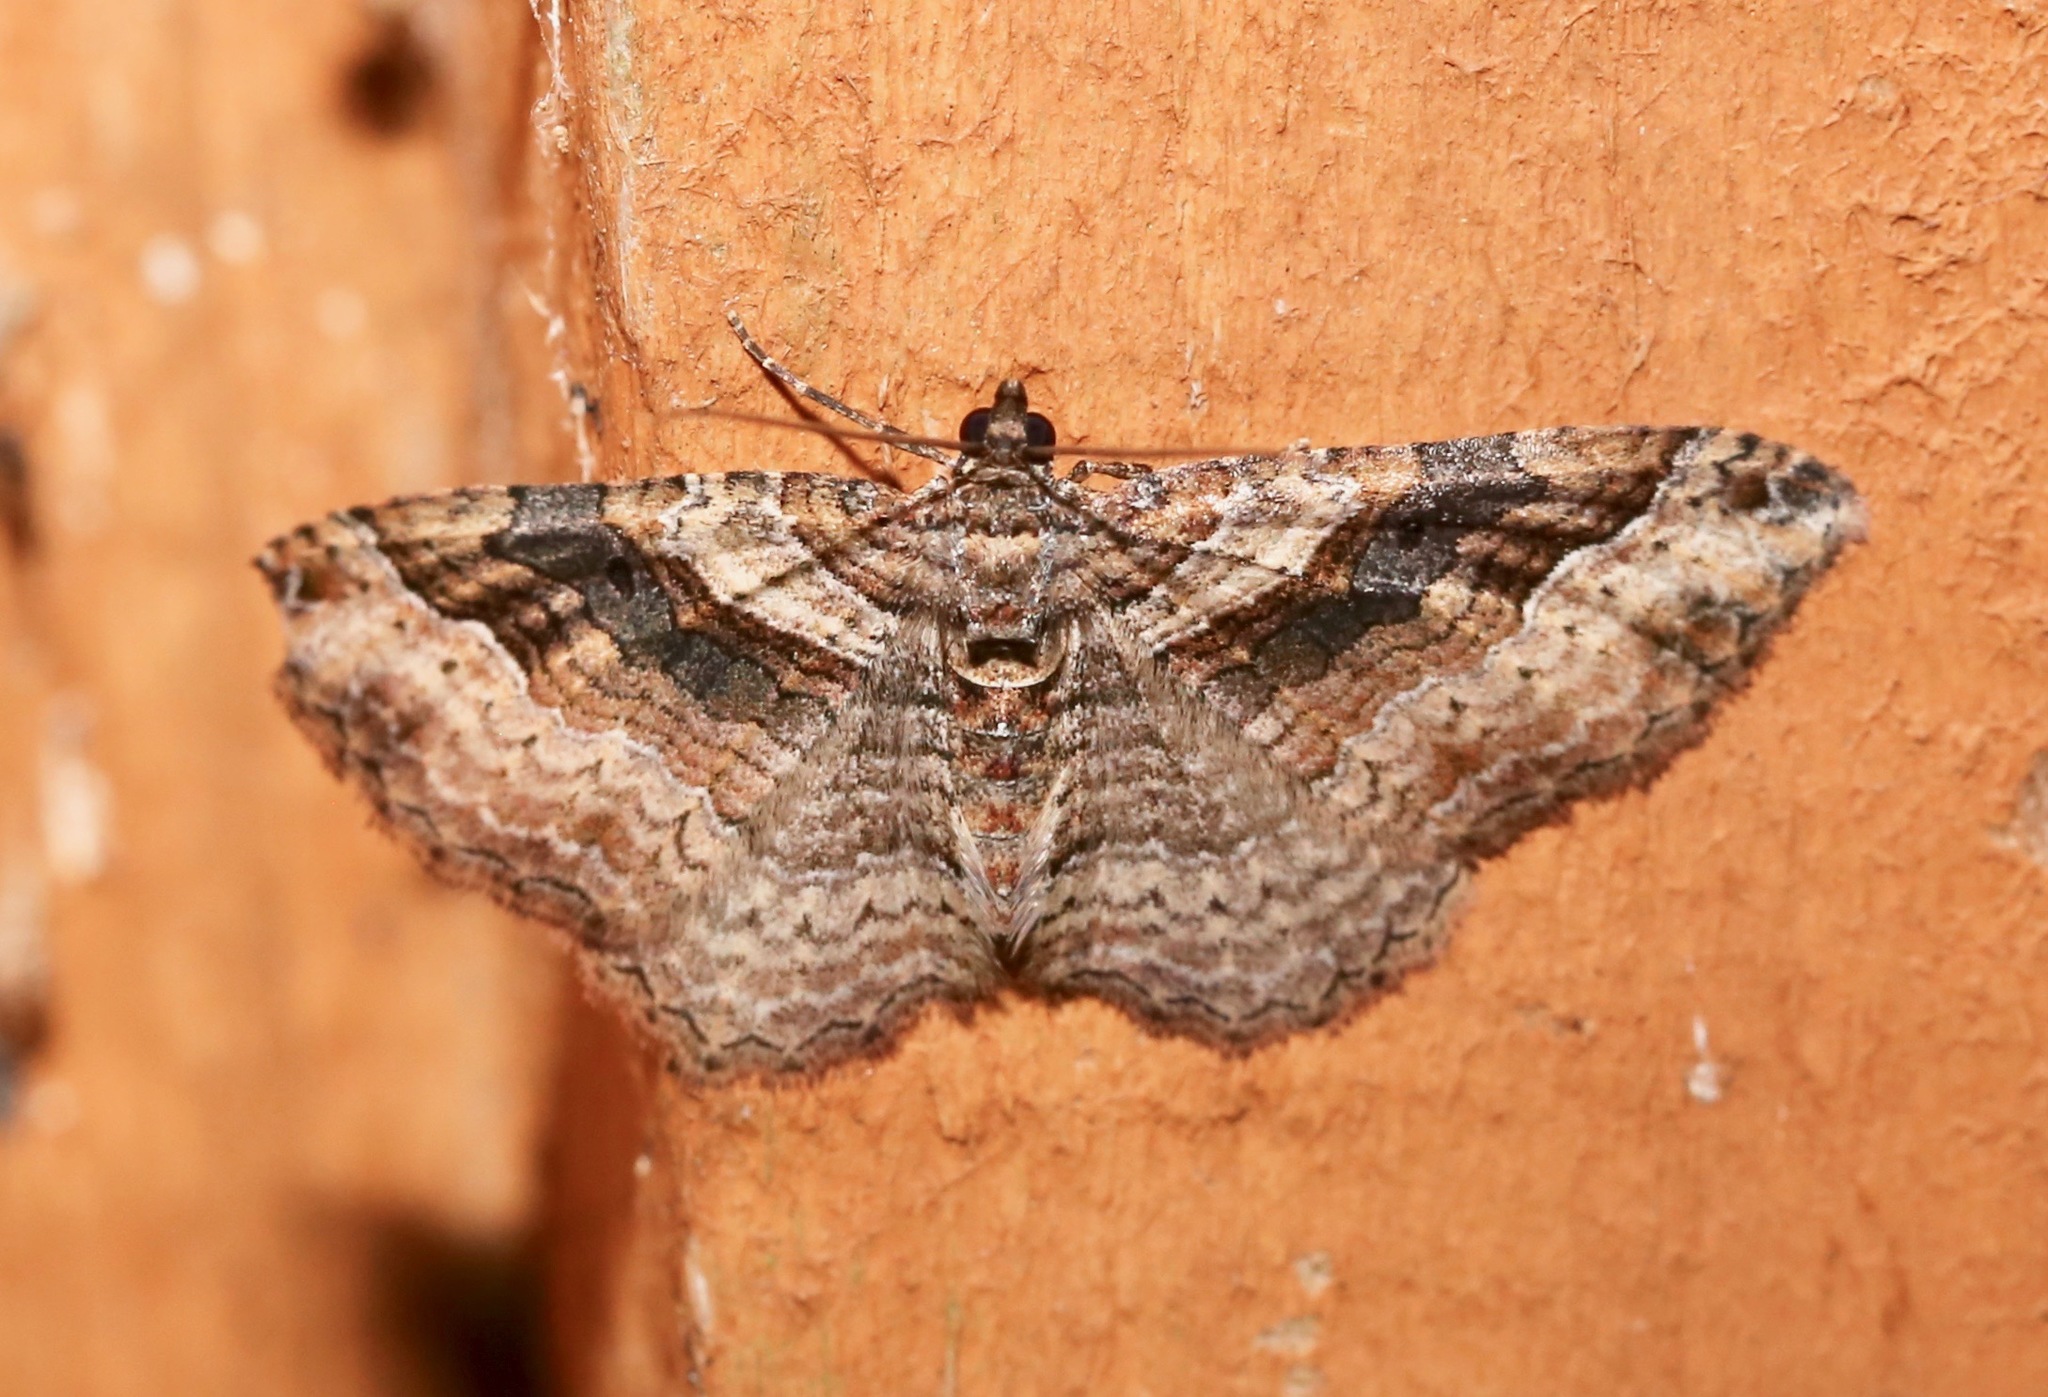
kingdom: Animalia
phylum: Arthropoda
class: Insecta
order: Lepidoptera
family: Geometridae
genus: Costaconvexa
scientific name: Costaconvexa centrostrigaria
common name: Bent-line carpet
